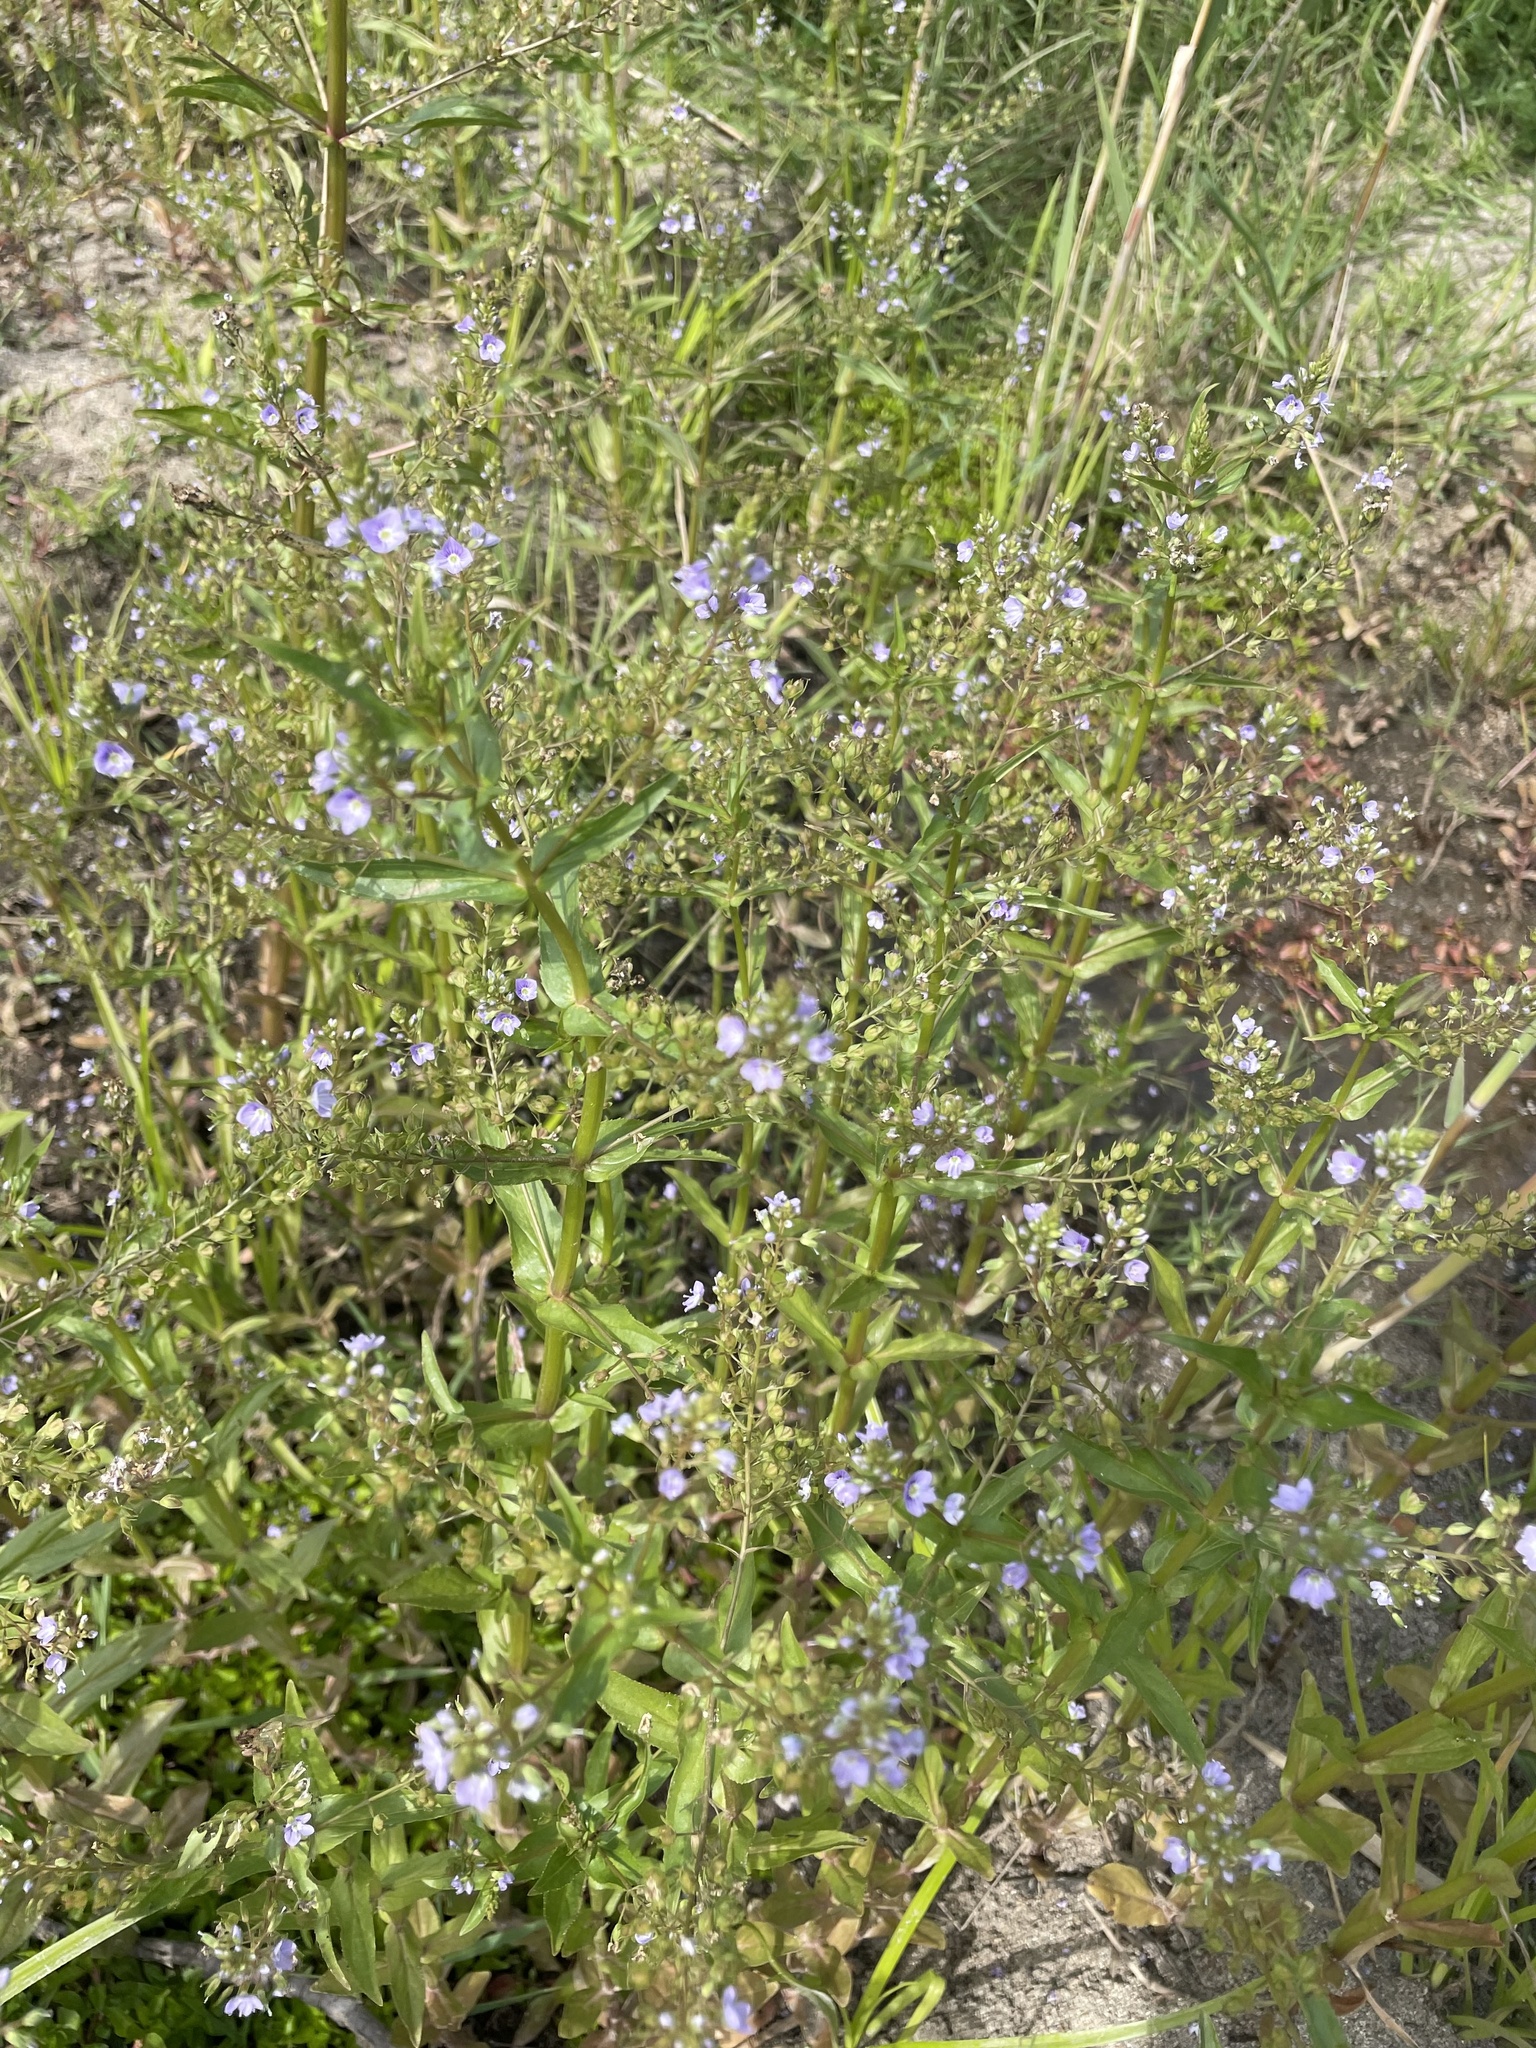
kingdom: Plantae
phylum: Tracheophyta
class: Magnoliopsida
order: Lamiales
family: Plantaginaceae
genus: Veronica
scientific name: Veronica anagallis-aquatica
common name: Water speedwell
